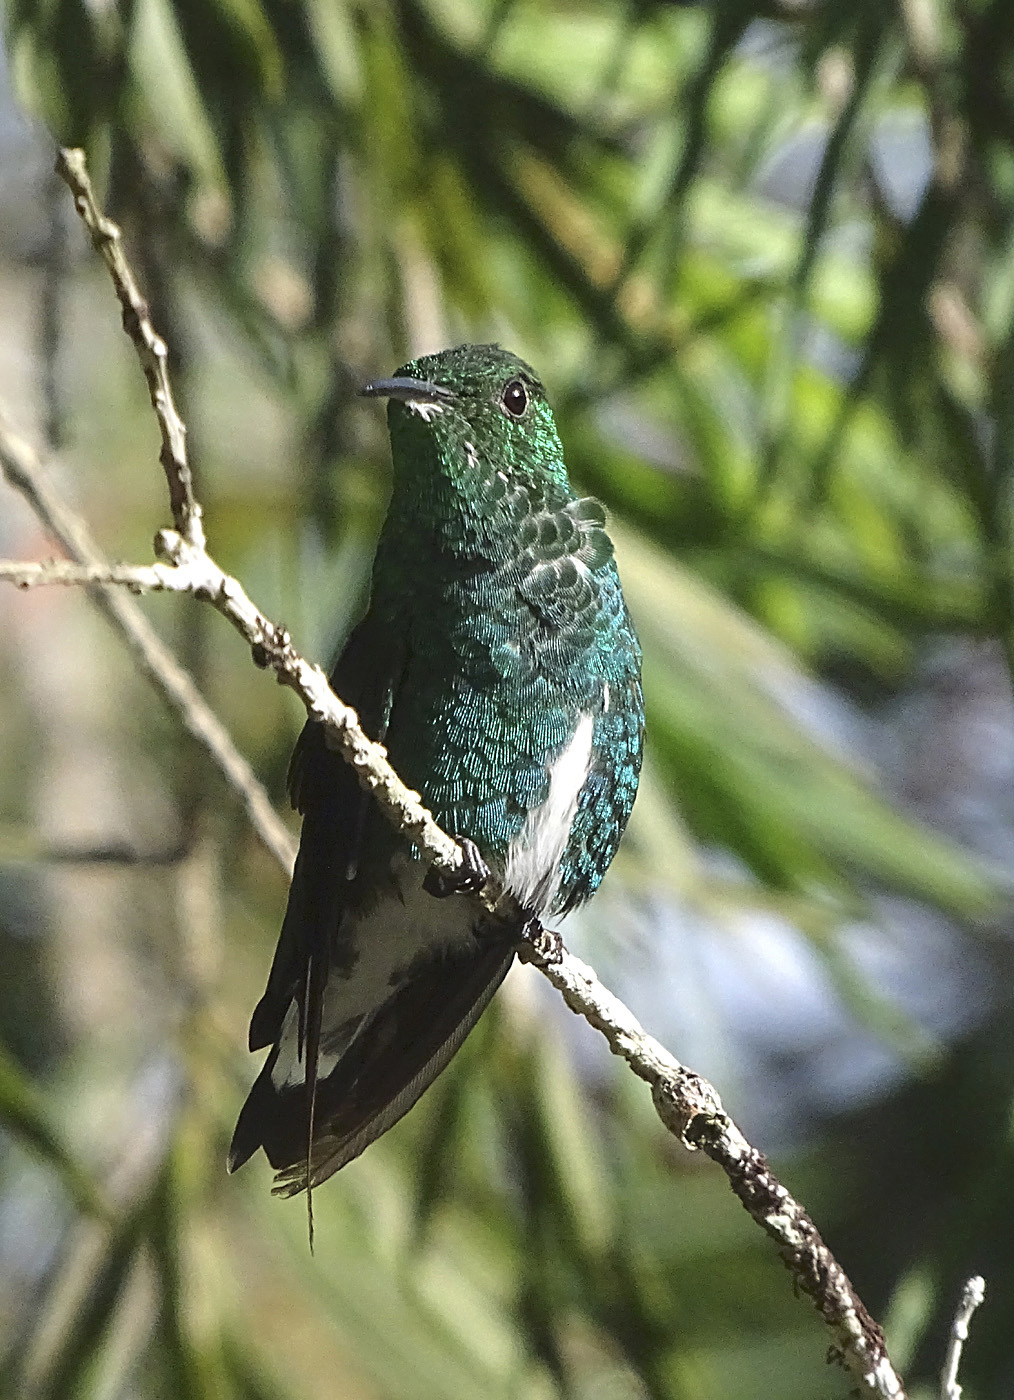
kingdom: Animalia
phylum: Chordata
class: Aves
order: Apodiformes
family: Trochilidae
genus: Microchera
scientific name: Microchera chionura
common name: White-tailed emerald
